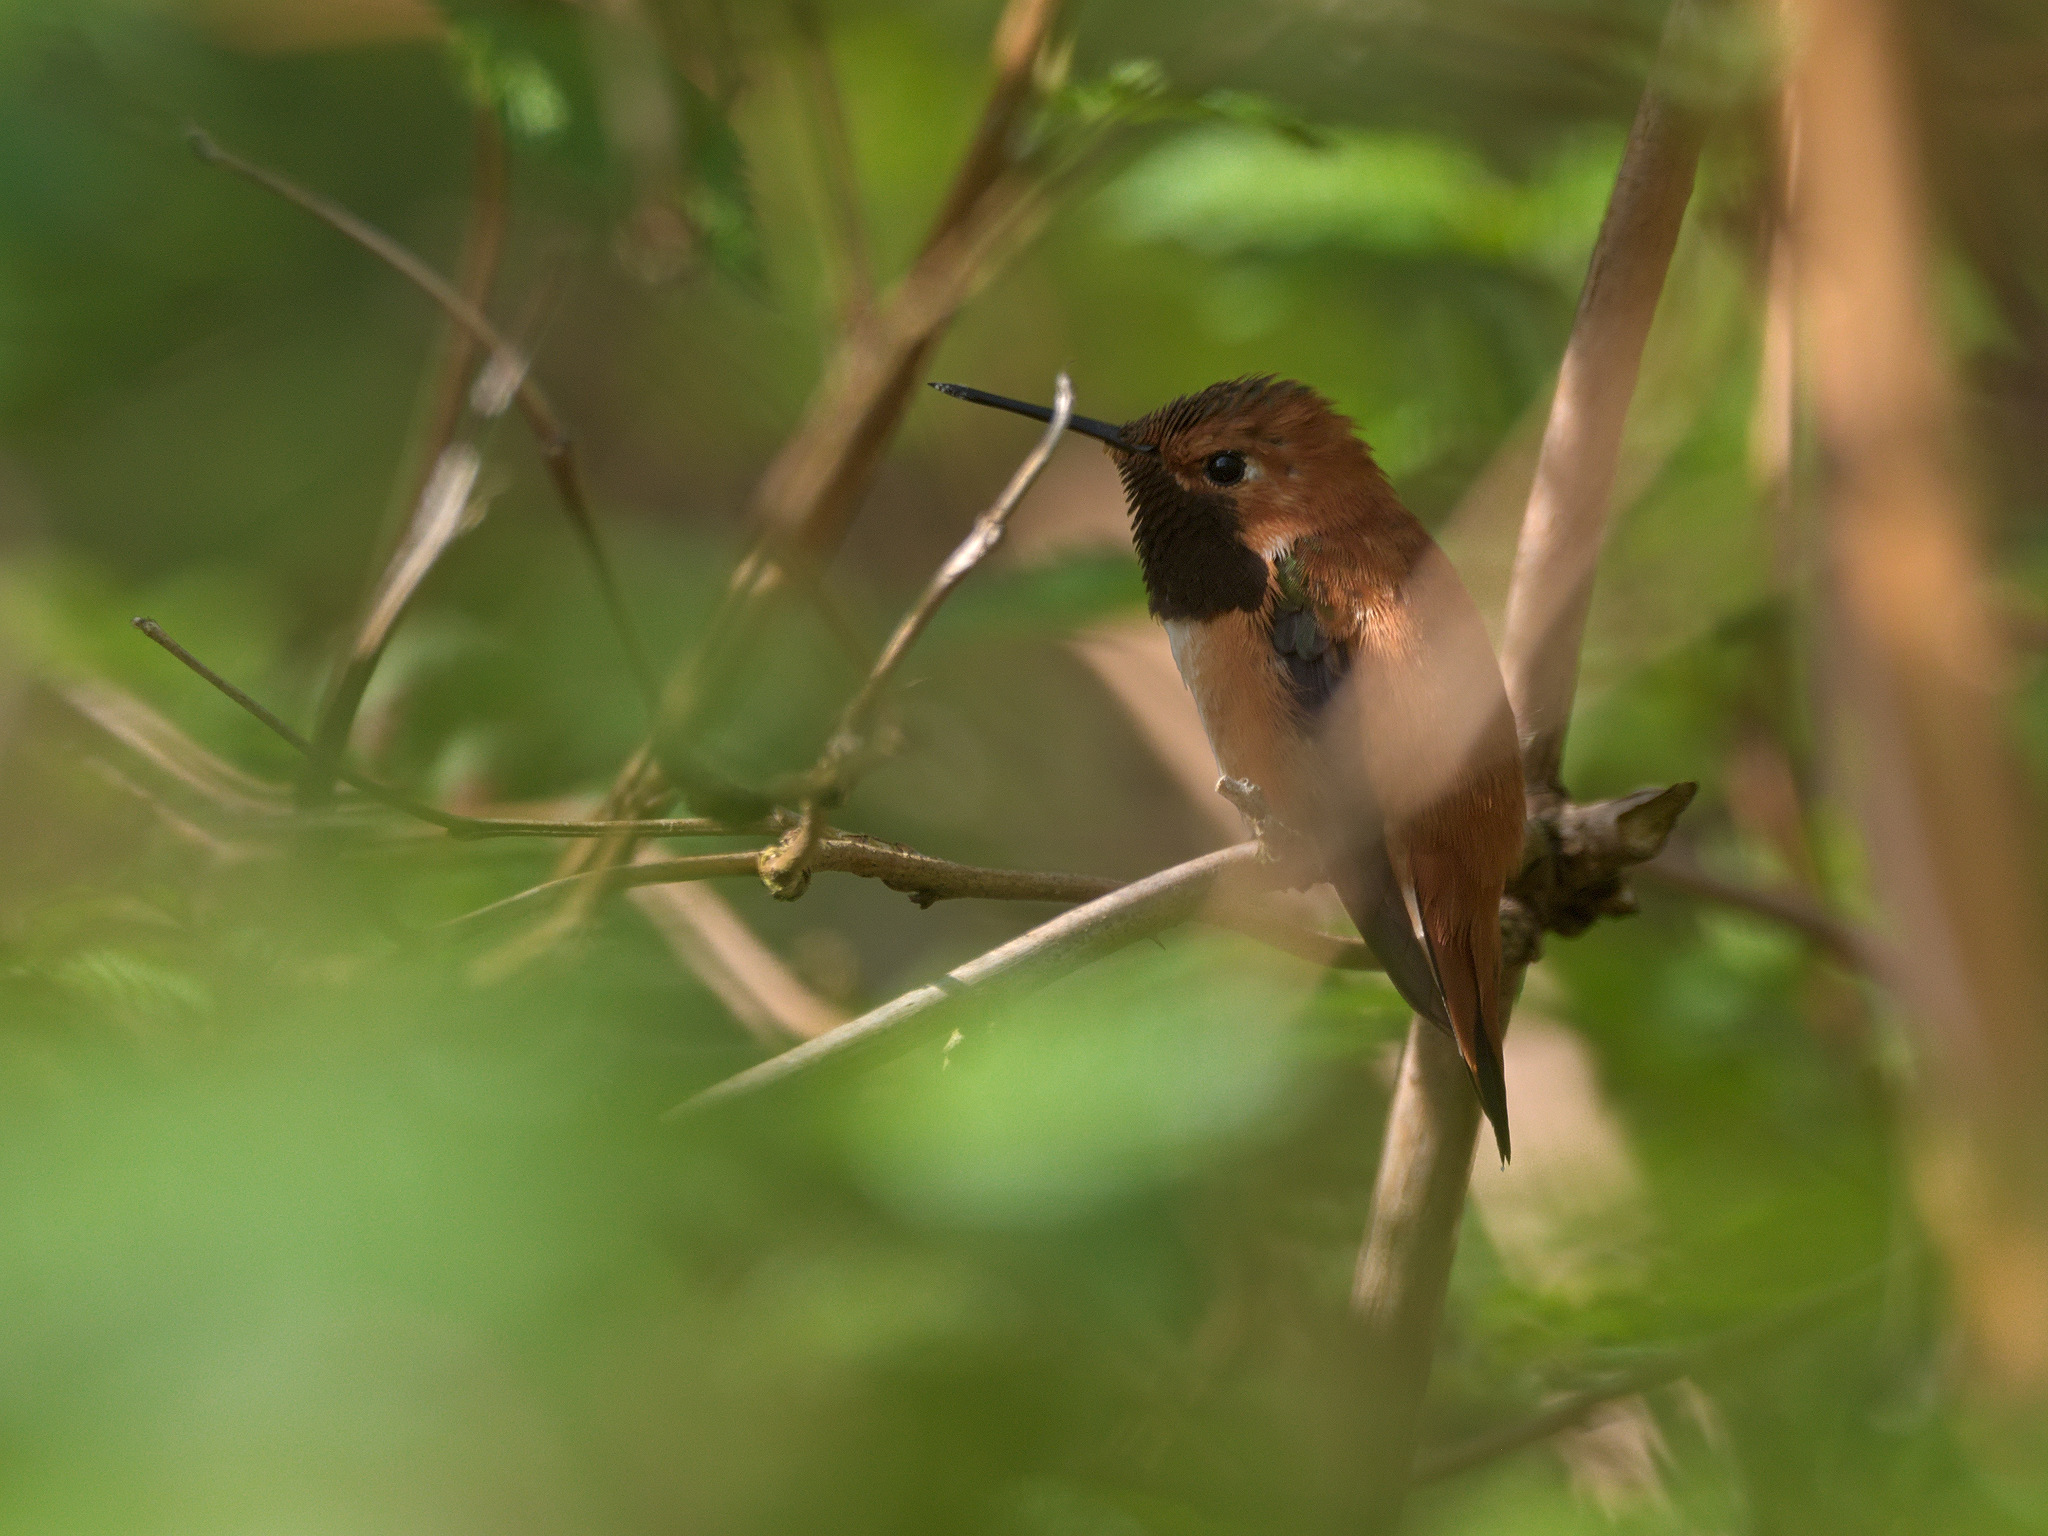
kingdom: Animalia
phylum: Chordata
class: Aves
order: Apodiformes
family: Trochilidae
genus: Selasphorus
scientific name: Selasphorus rufus
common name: Rufous hummingbird
